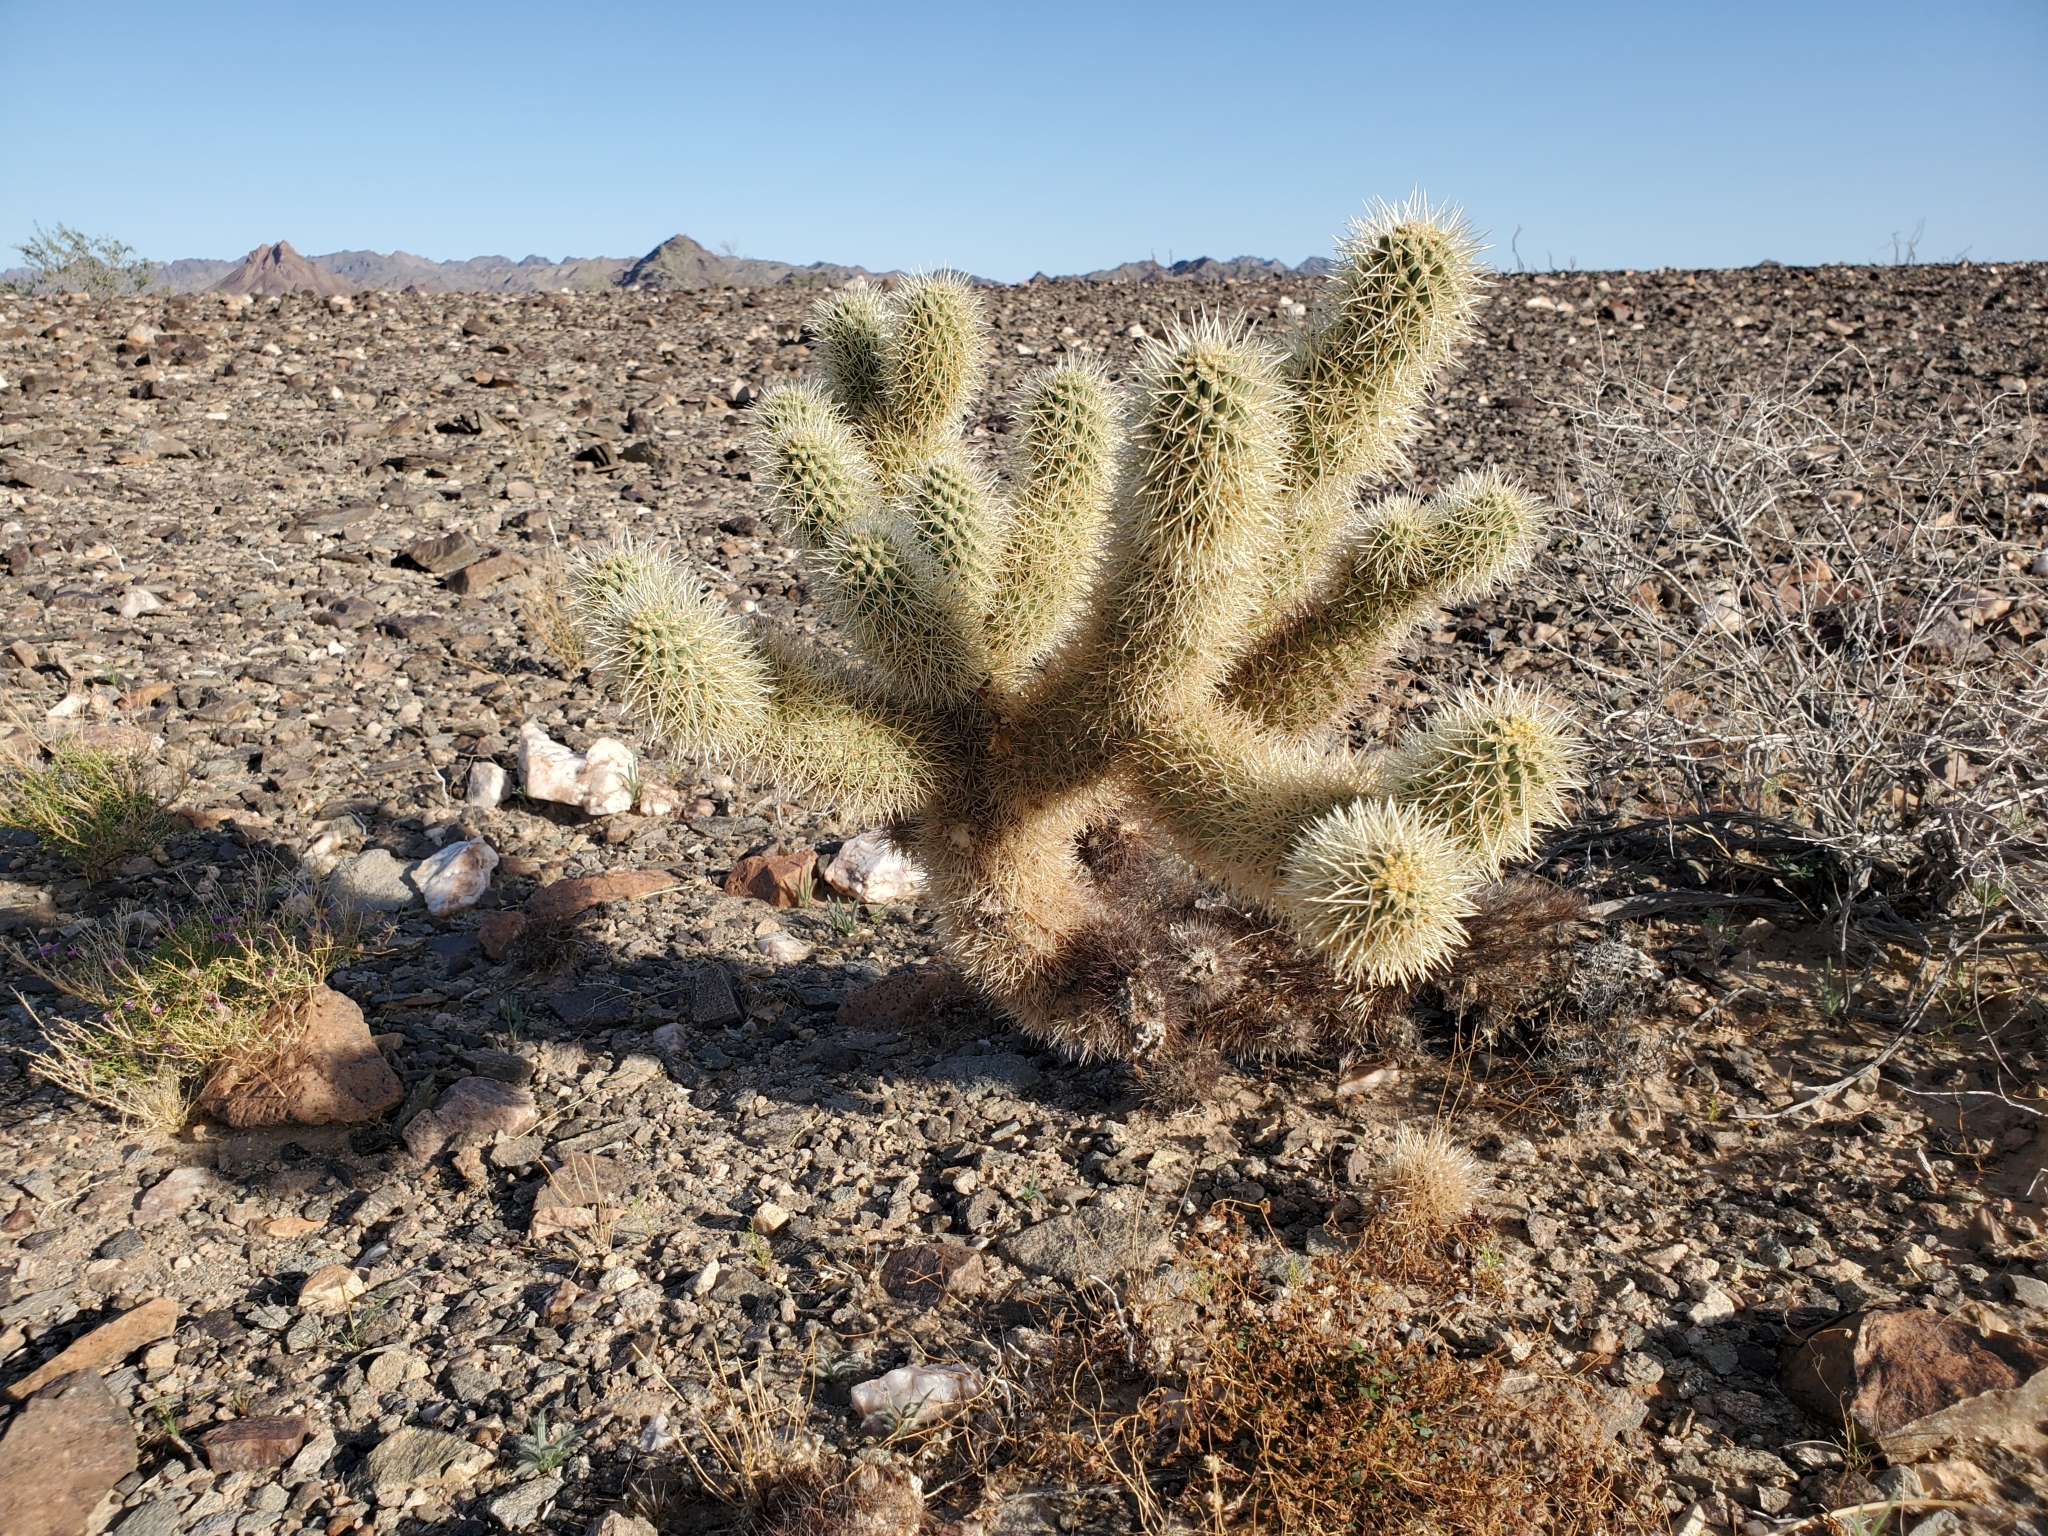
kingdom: Plantae
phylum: Tracheophyta
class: Magnoliopsida
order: Caryophyllales
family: Cactaceae
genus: Cylindropuntia
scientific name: Cylindropuntia fosbergii
